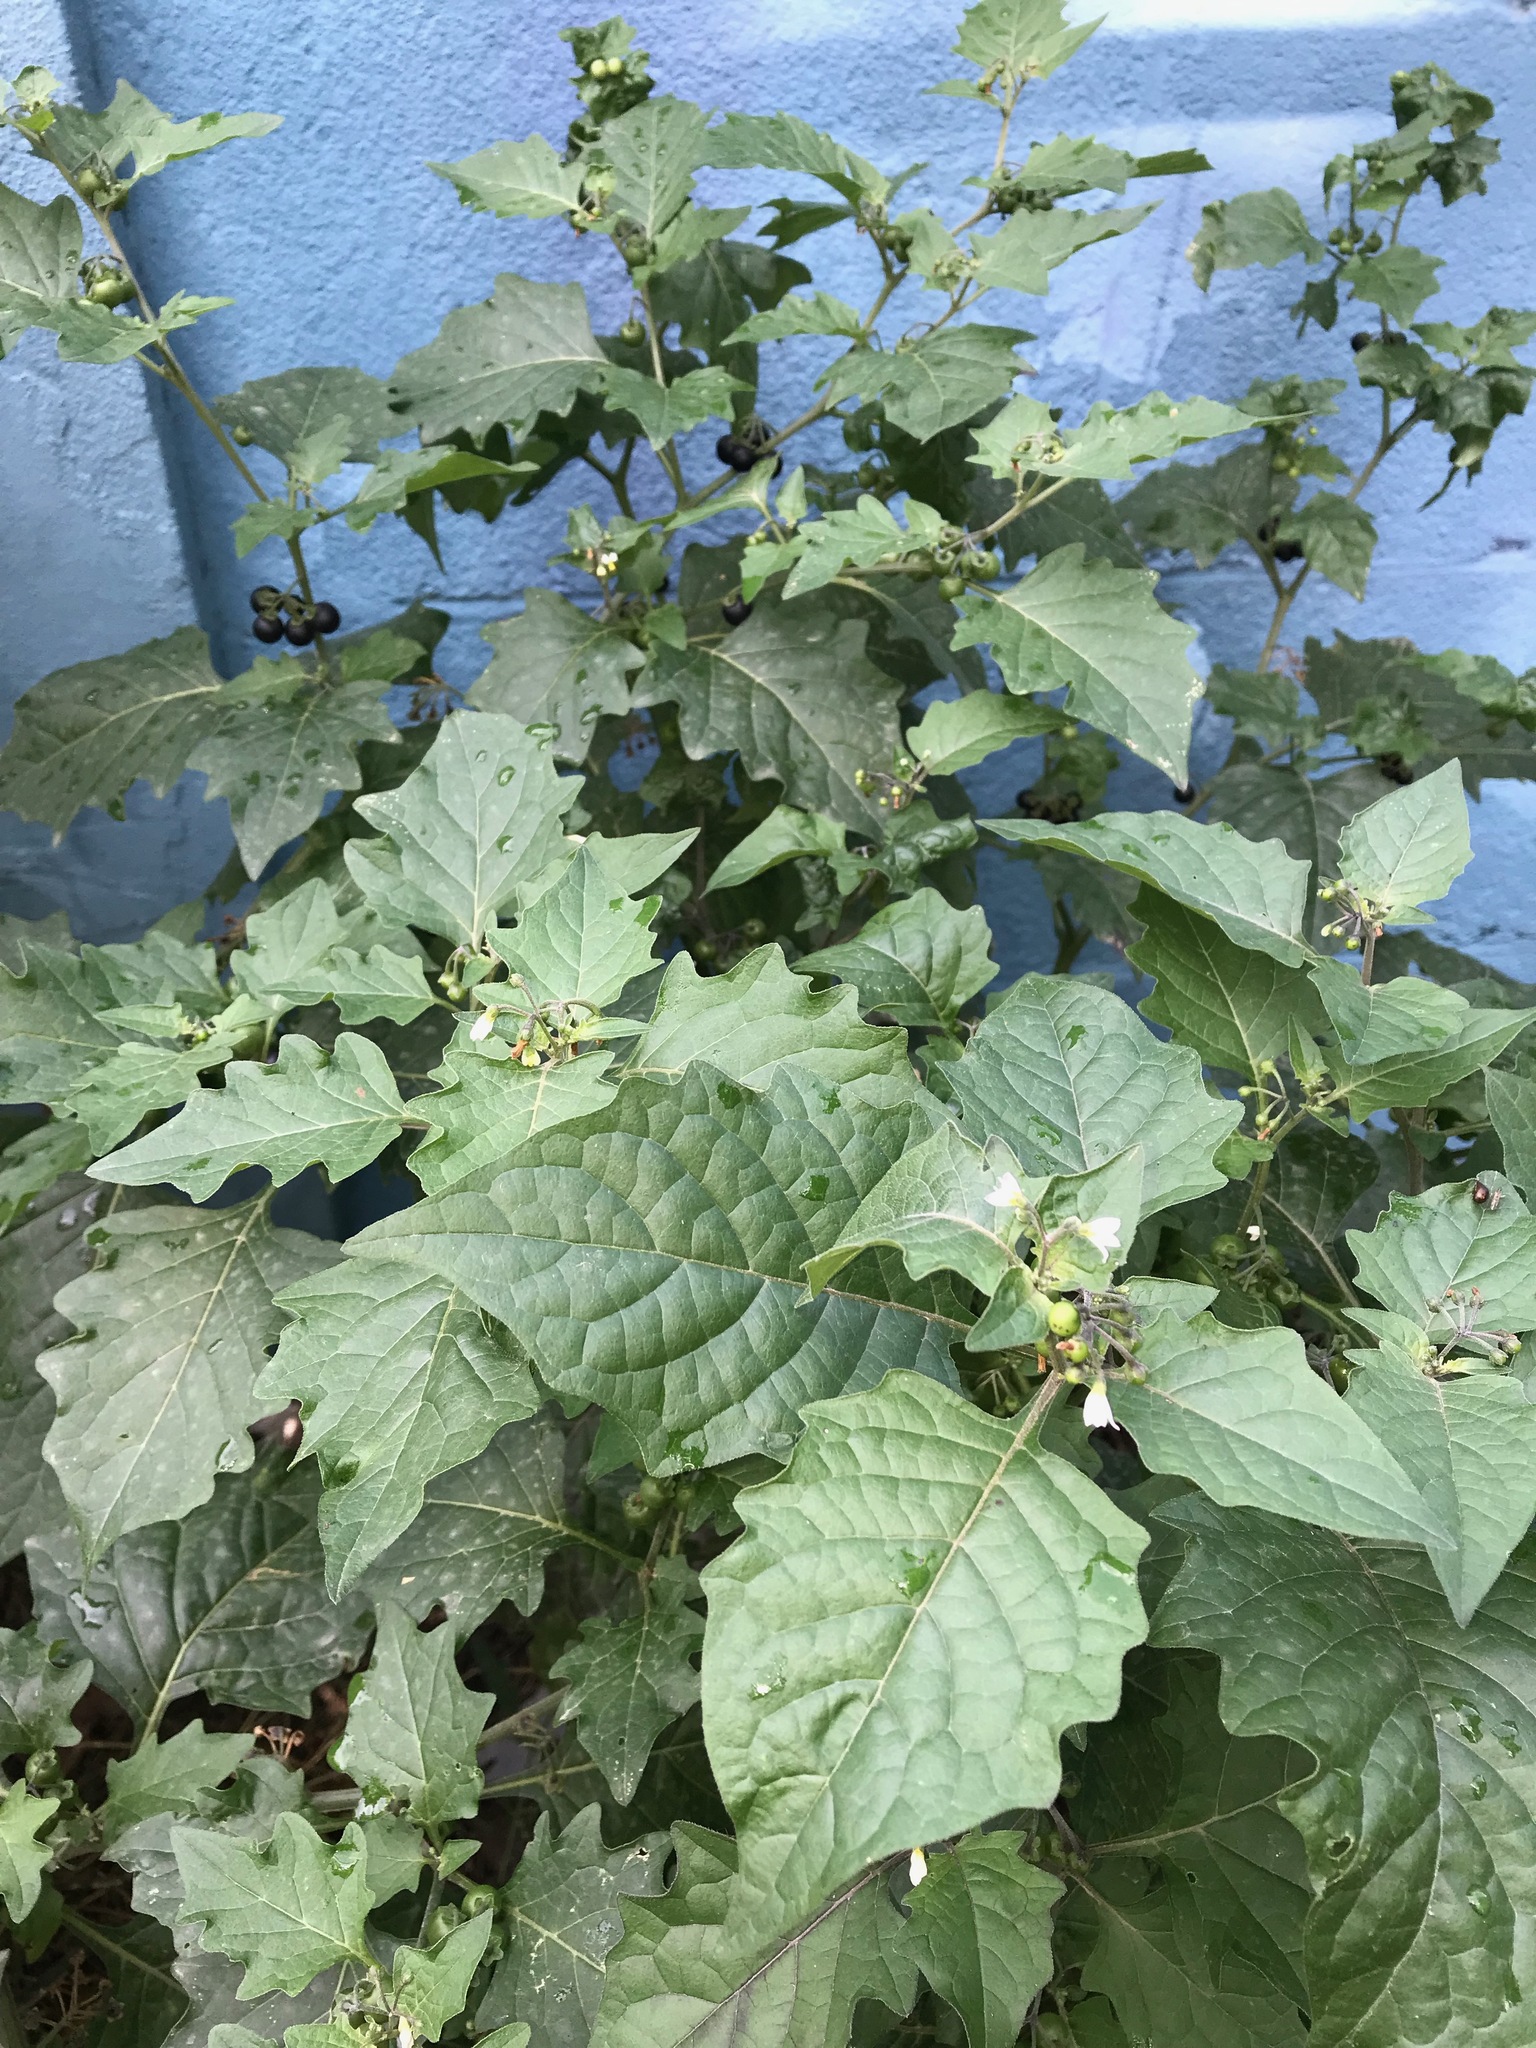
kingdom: Plantae
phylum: Tracheophyta
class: Magnoliopsida
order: Solanales
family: Solanaceae
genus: Solanum
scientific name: Solanum nigrum
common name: Black nightshade
